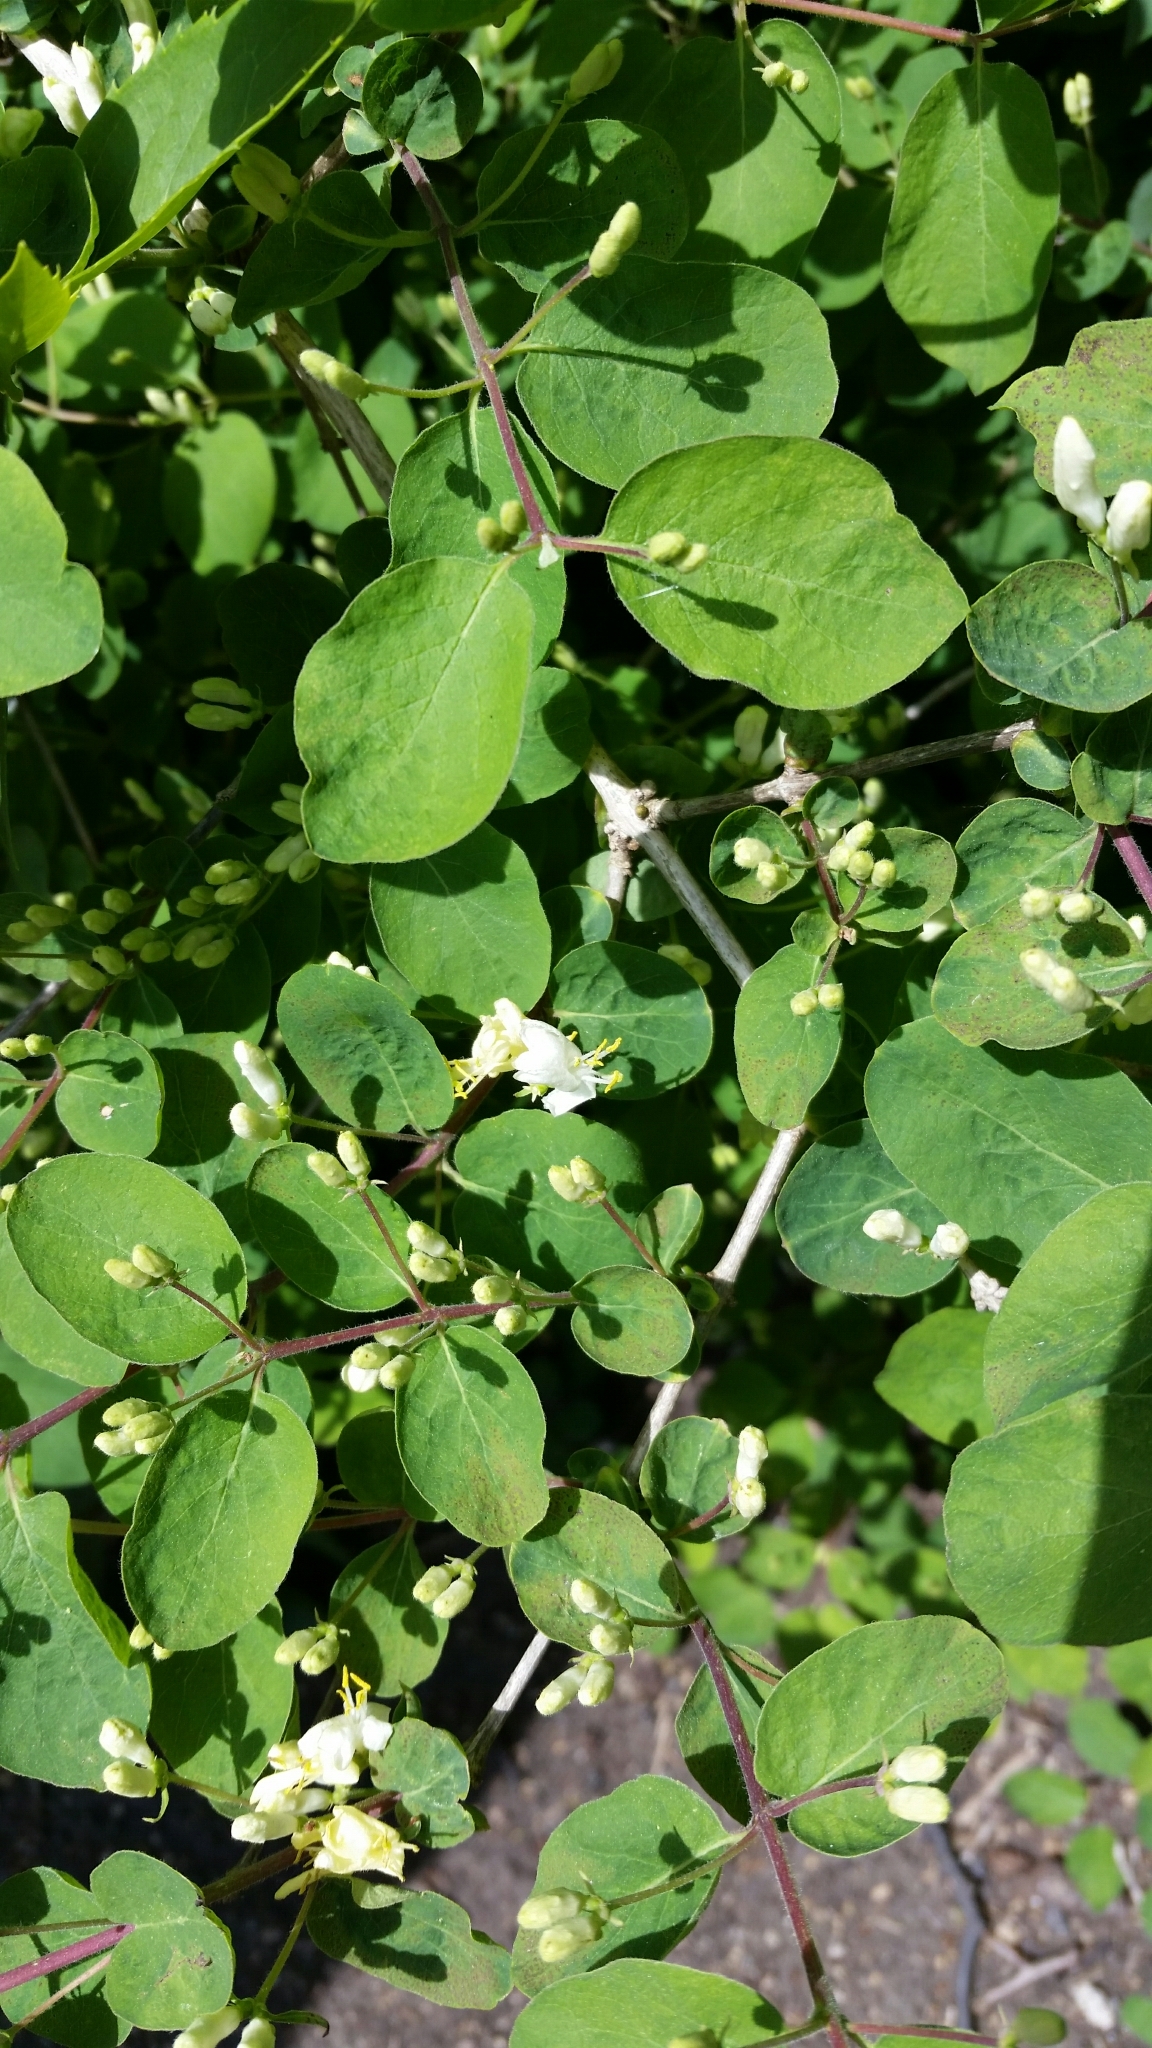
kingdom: Plantae
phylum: Tracheophyta
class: Magnoliopsida
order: Dipsacales
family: Caprifoliaceae
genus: Lonicera
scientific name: Lonicera xylosteum
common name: Fly honeysuckle
